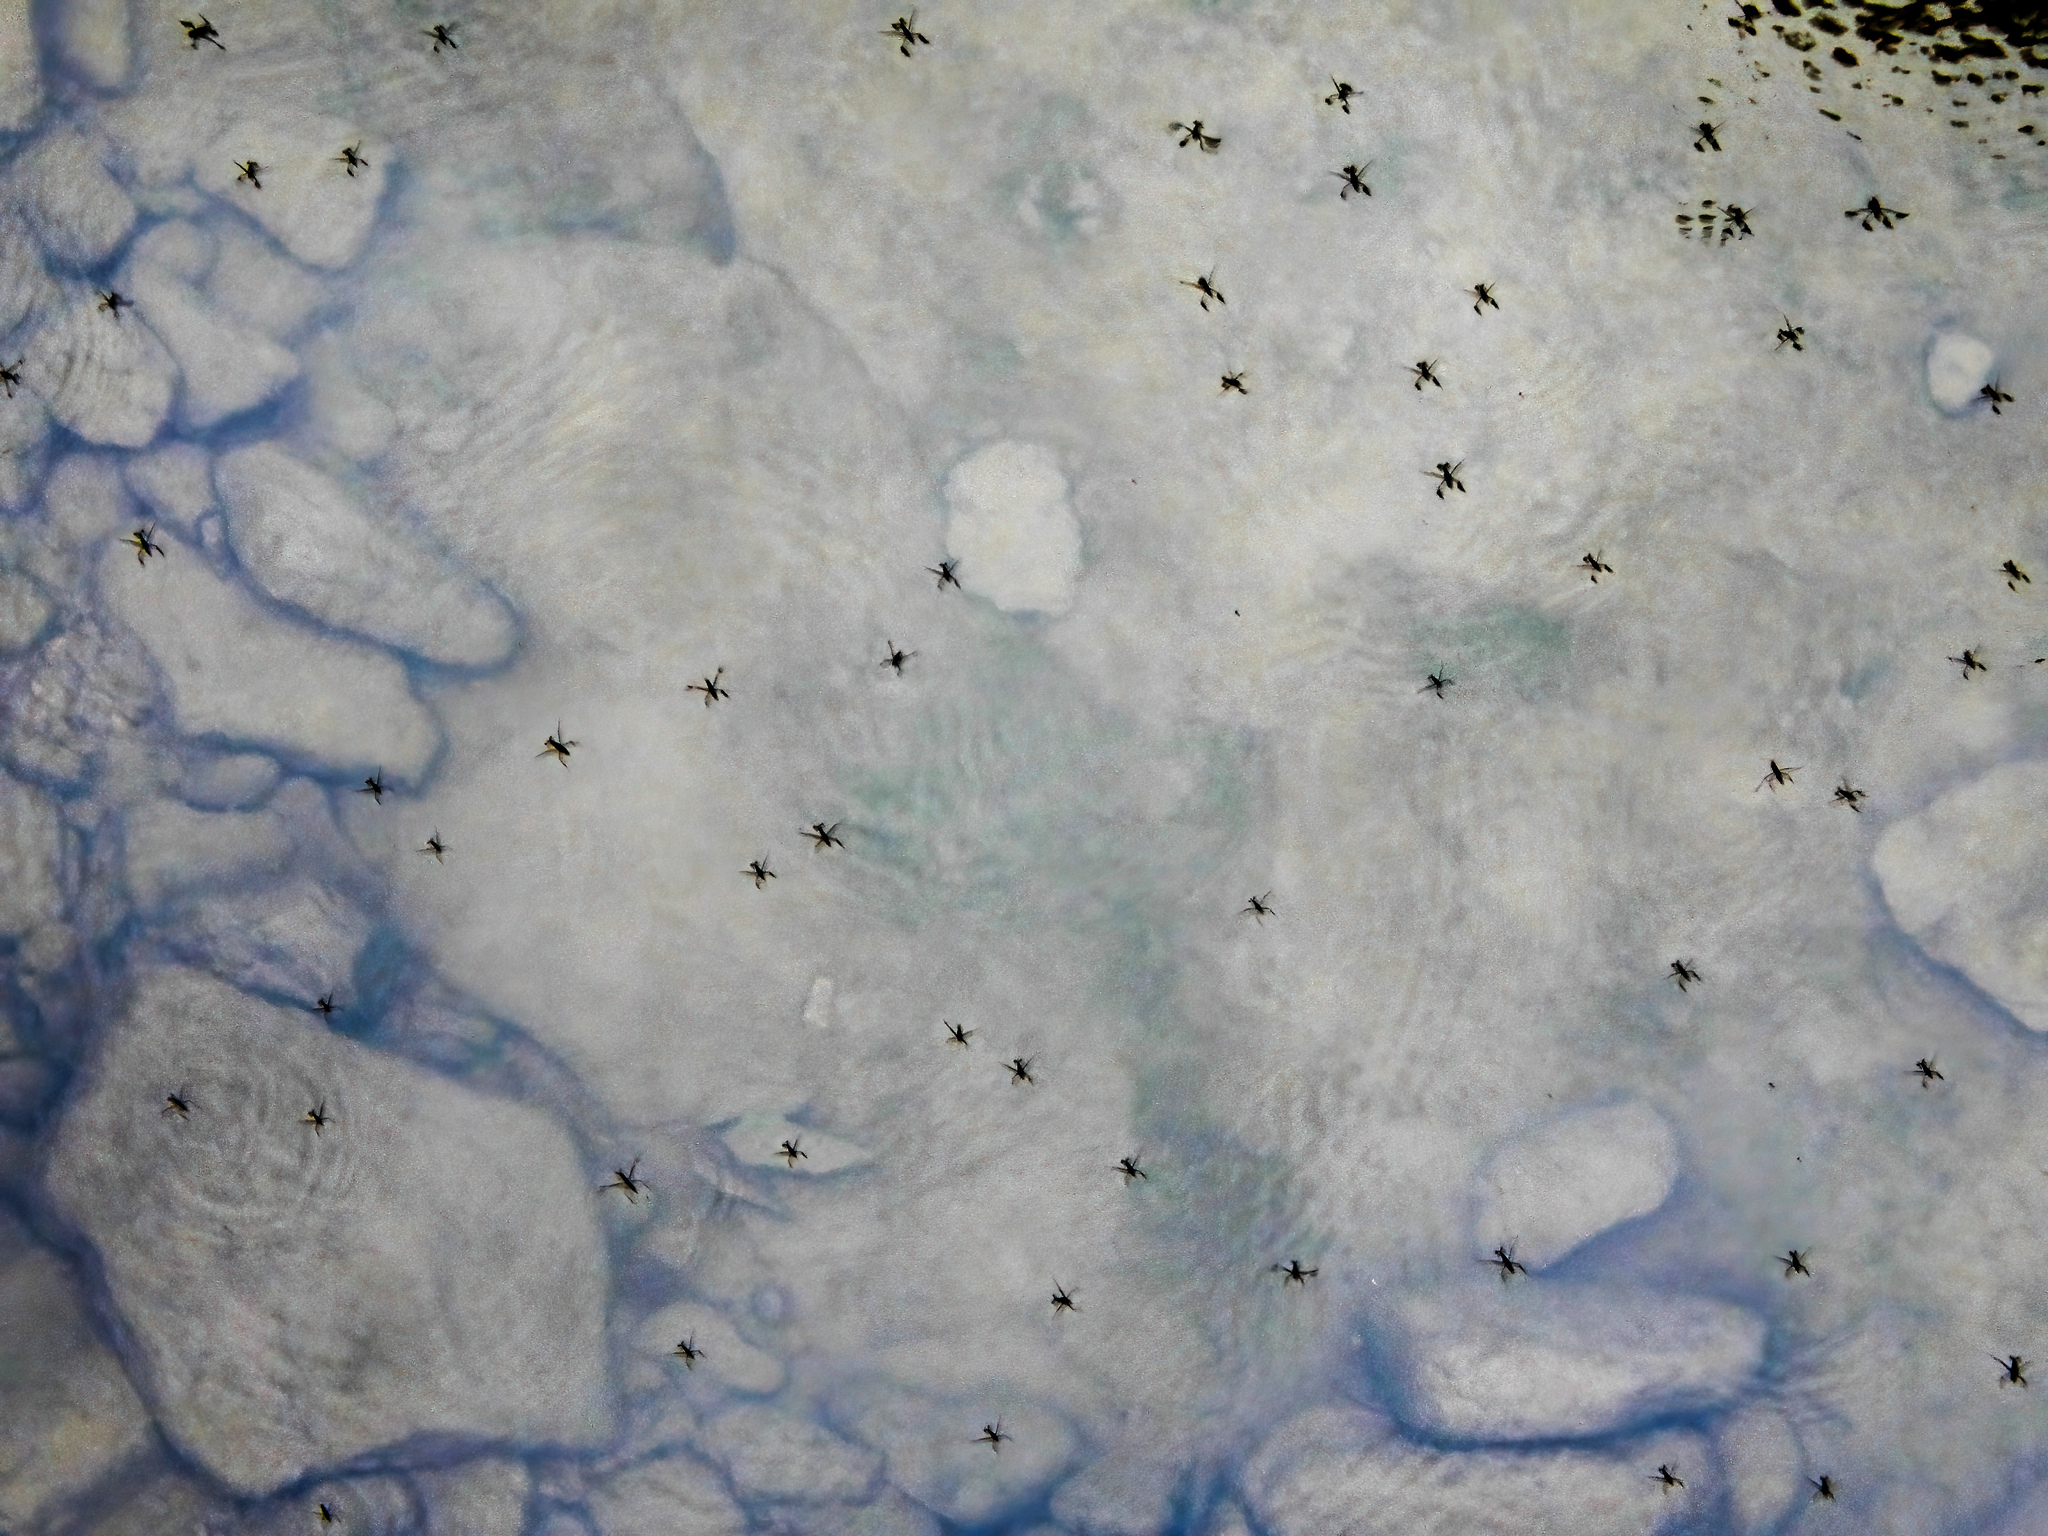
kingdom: Animalia
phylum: Arthropoda
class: Insecta
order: Hemiptera
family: Gerridae
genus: Aquarius
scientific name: Aquarius remigis
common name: Common water strider
